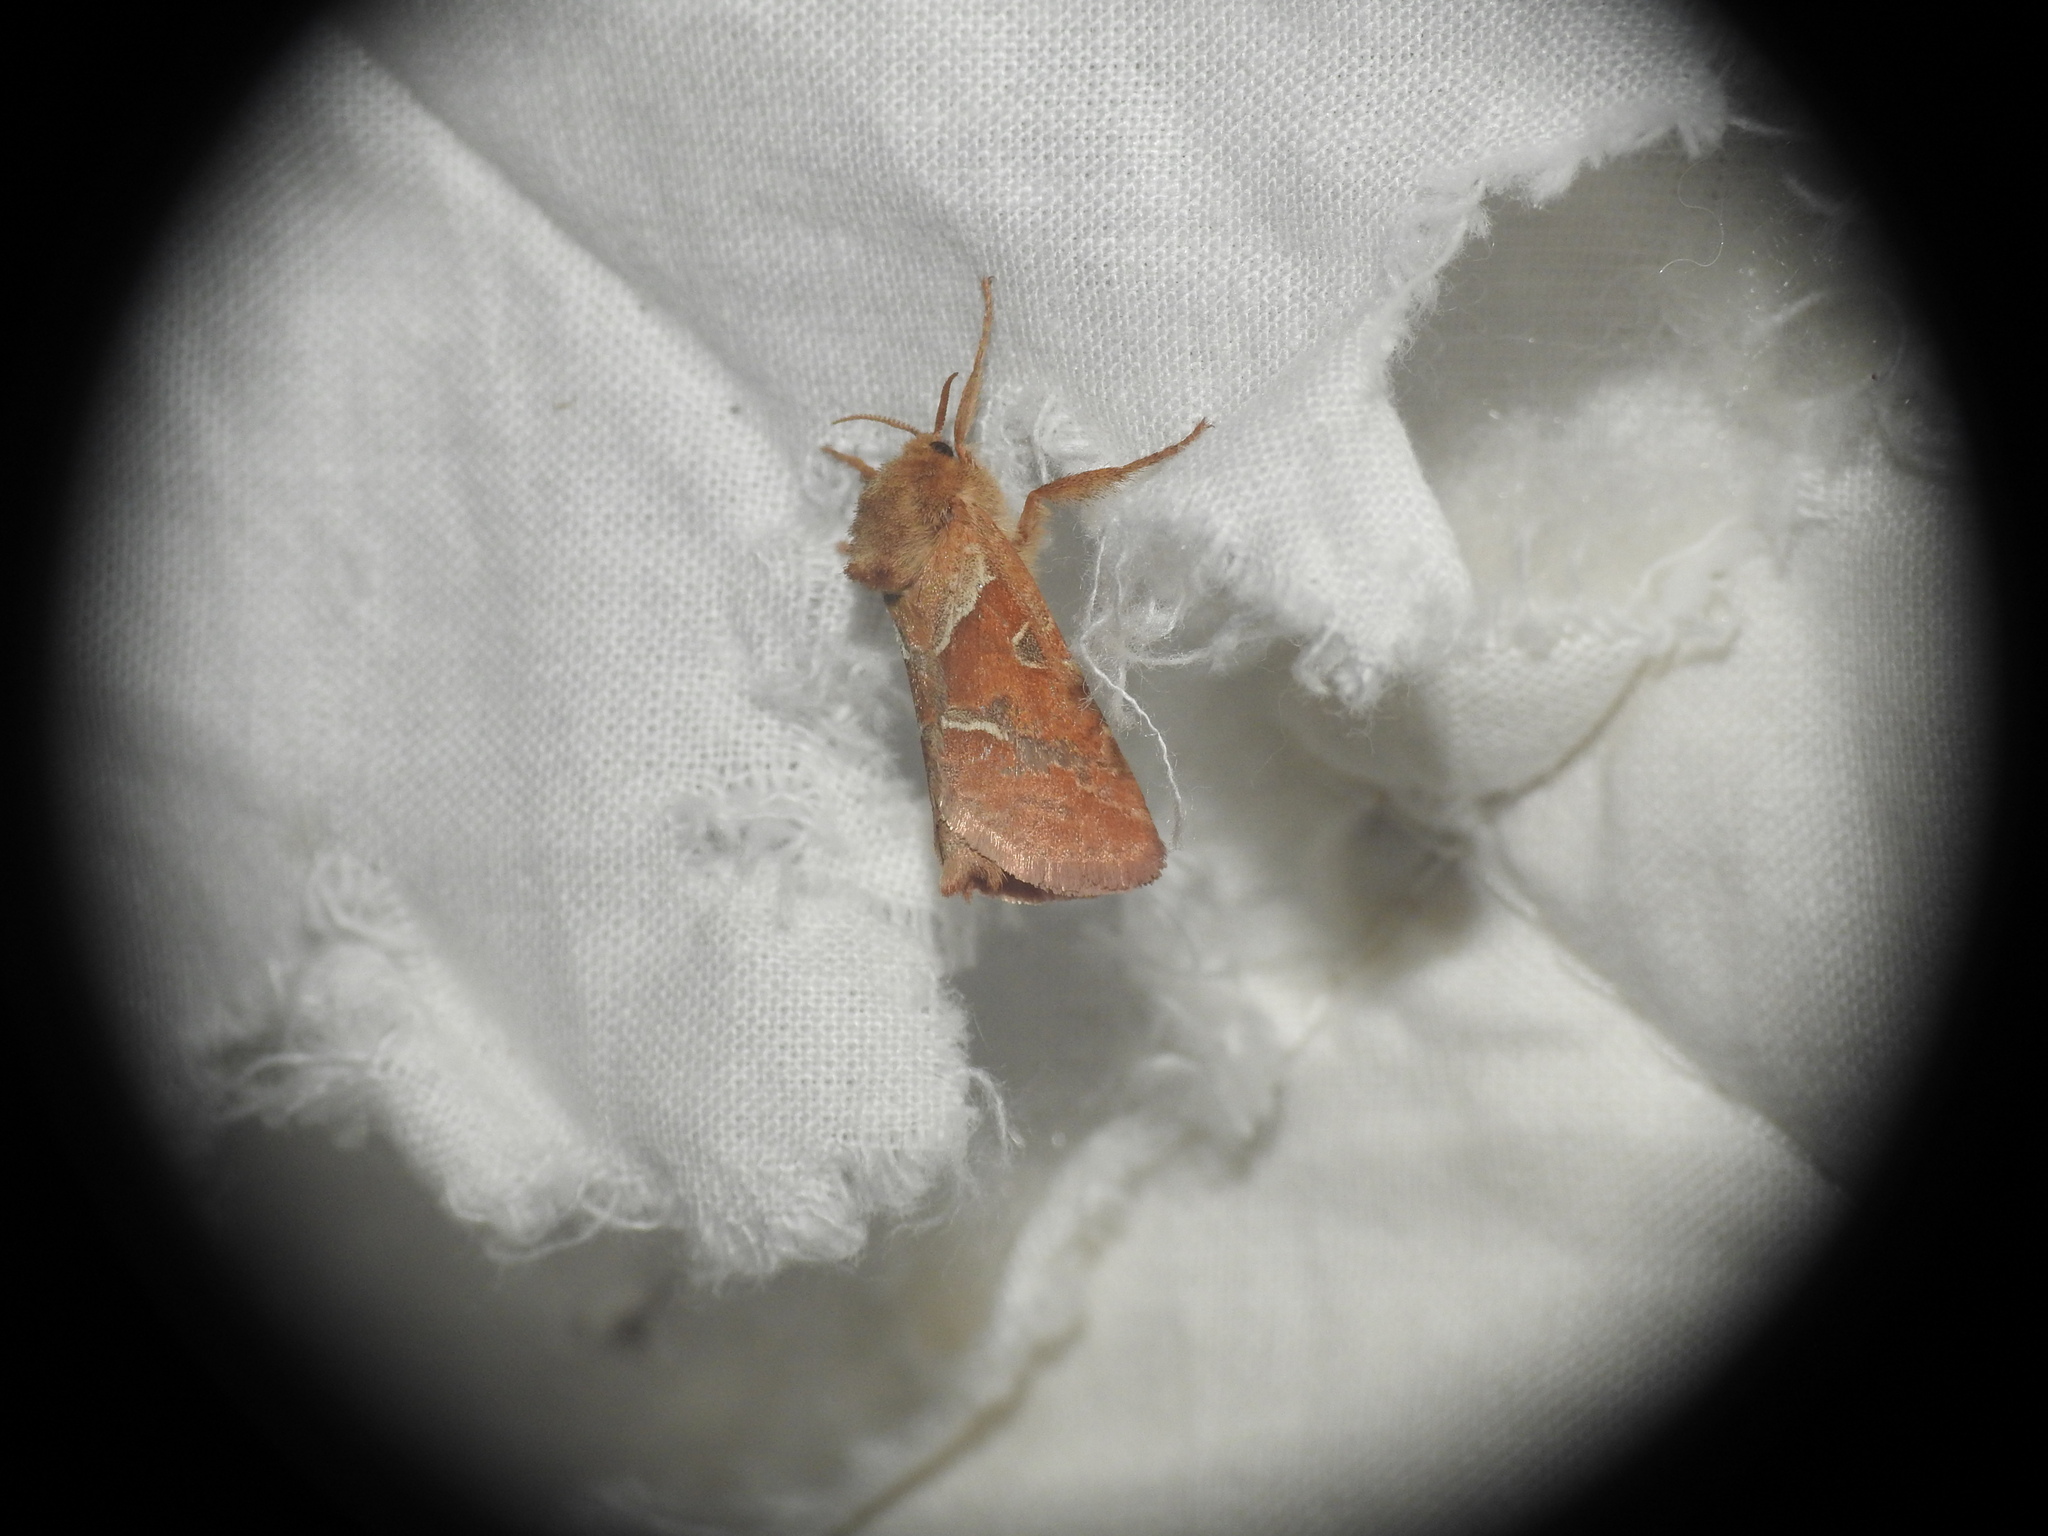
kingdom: Animalia
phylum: Arthropoda
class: Insecta
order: Lepidoptera
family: Hepialidae
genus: Triodia
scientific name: Triodia sylvina
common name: Orange swift
